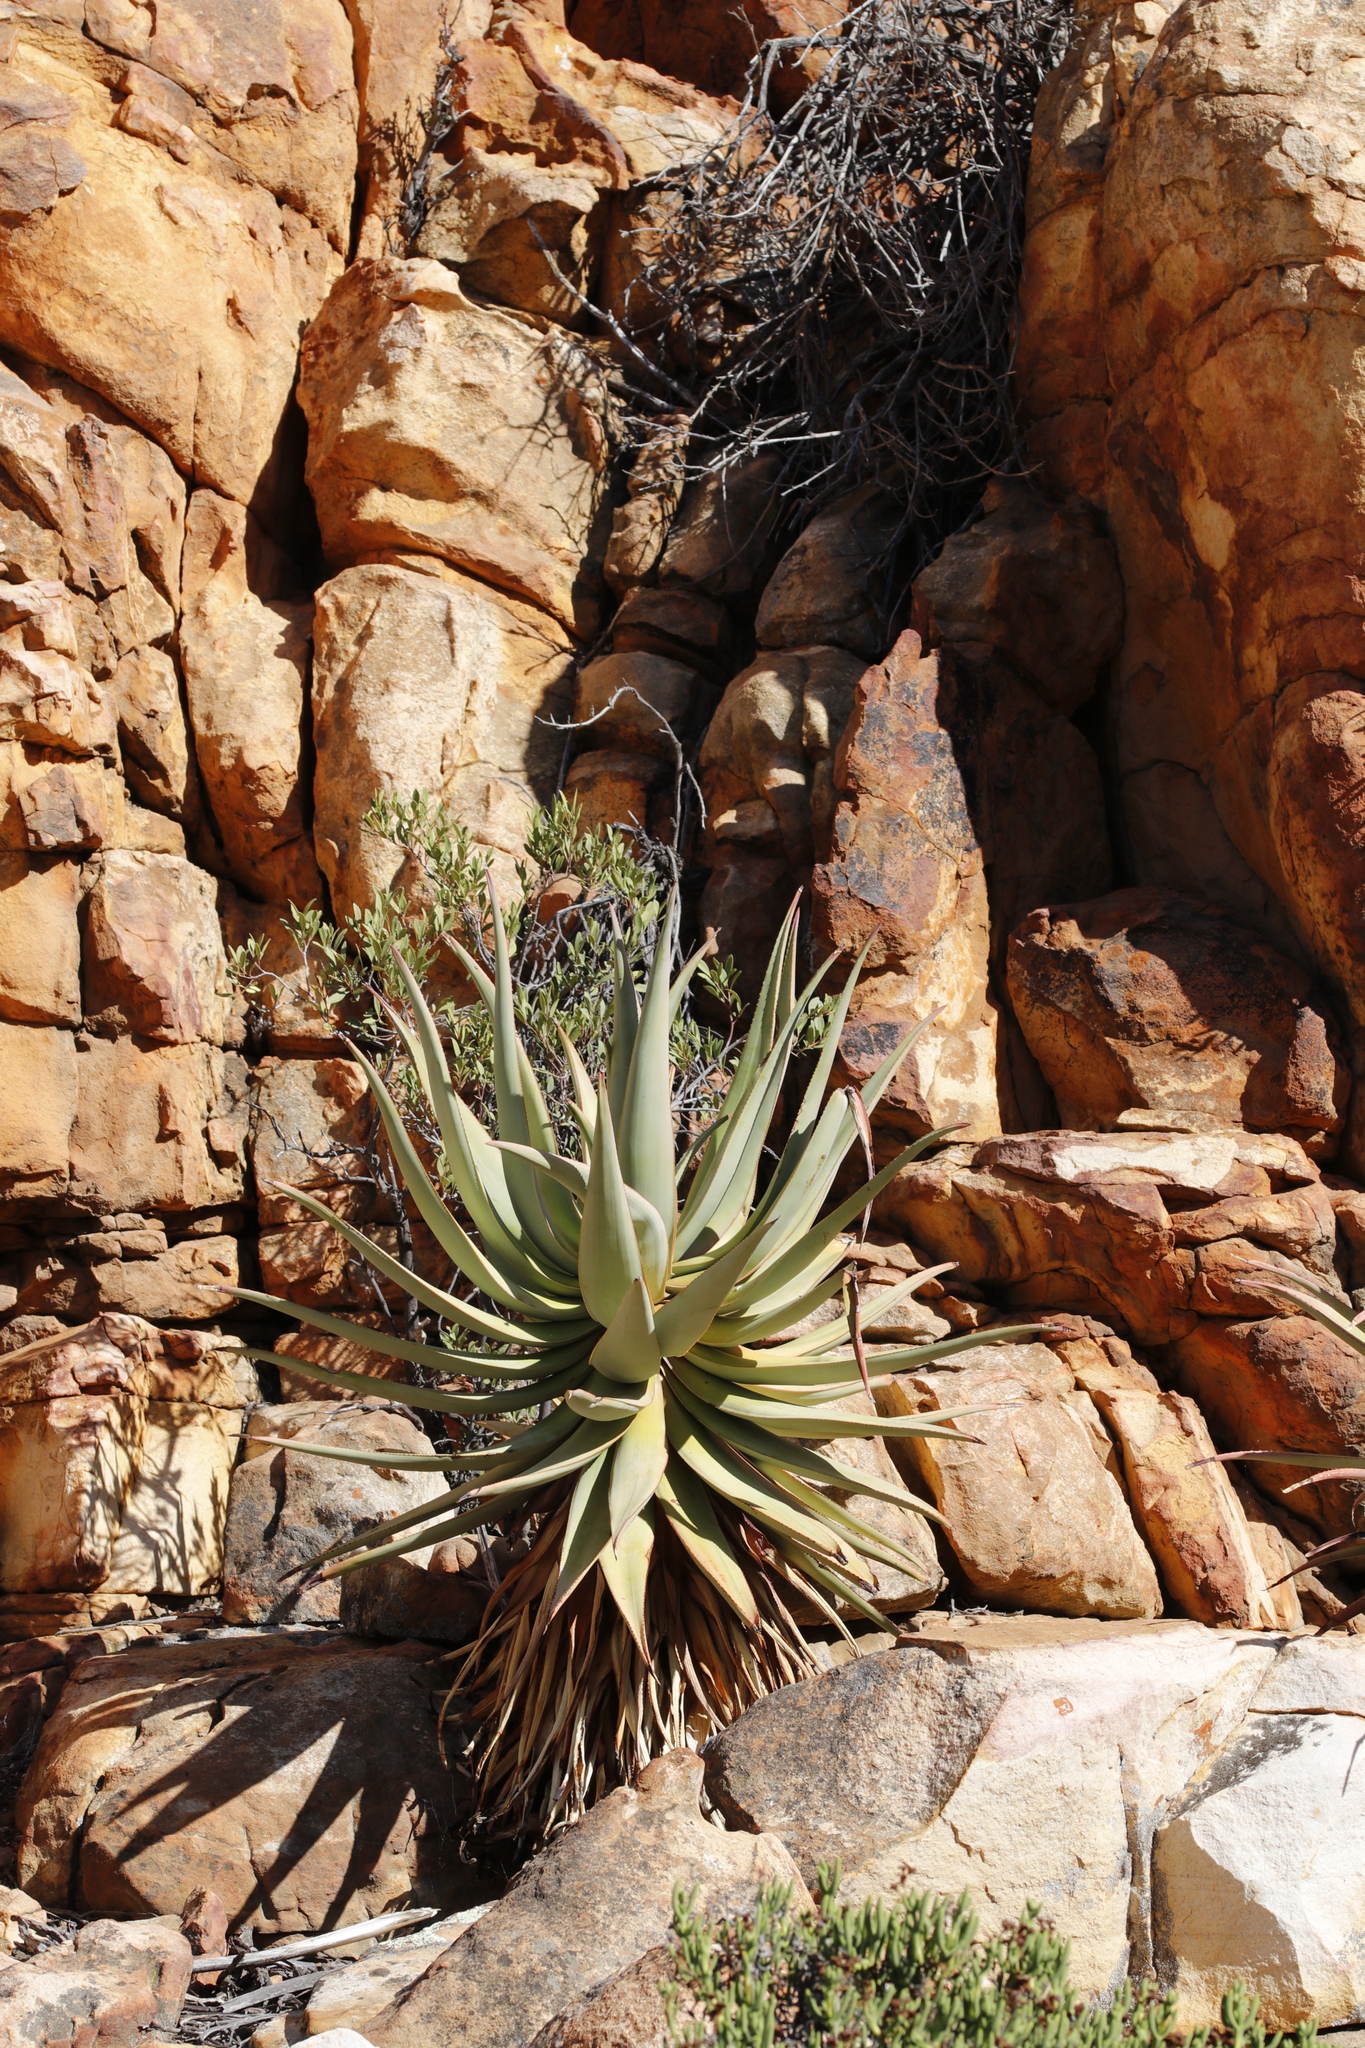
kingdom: Plantae
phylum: Tracheophyta
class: Liliopsida
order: Asparagales
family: Asphodelaceae
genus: Aloe
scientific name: Aloe comosa
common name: Clanwilliam aloe
